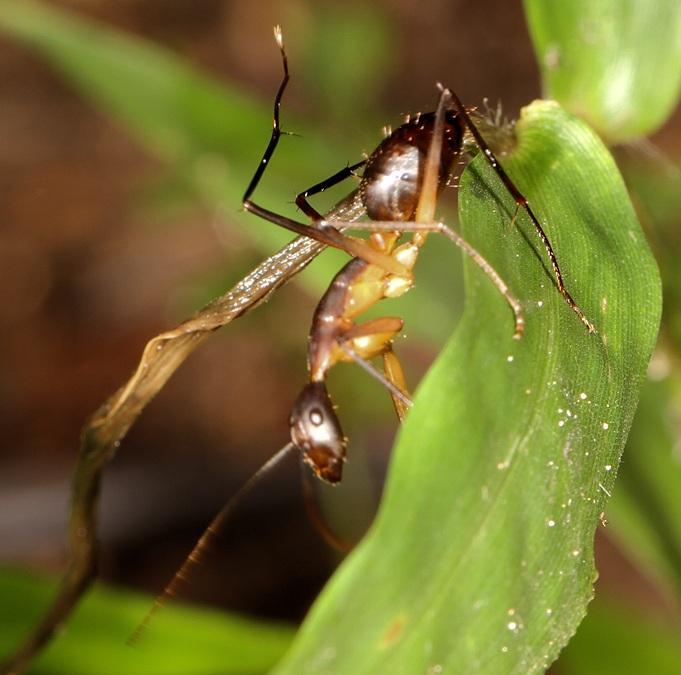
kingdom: Animalia
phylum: Arthropoda
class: Insecta
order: Hymenoptera
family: Formicidae
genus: Camponotus
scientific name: Camponotus etiolipes
